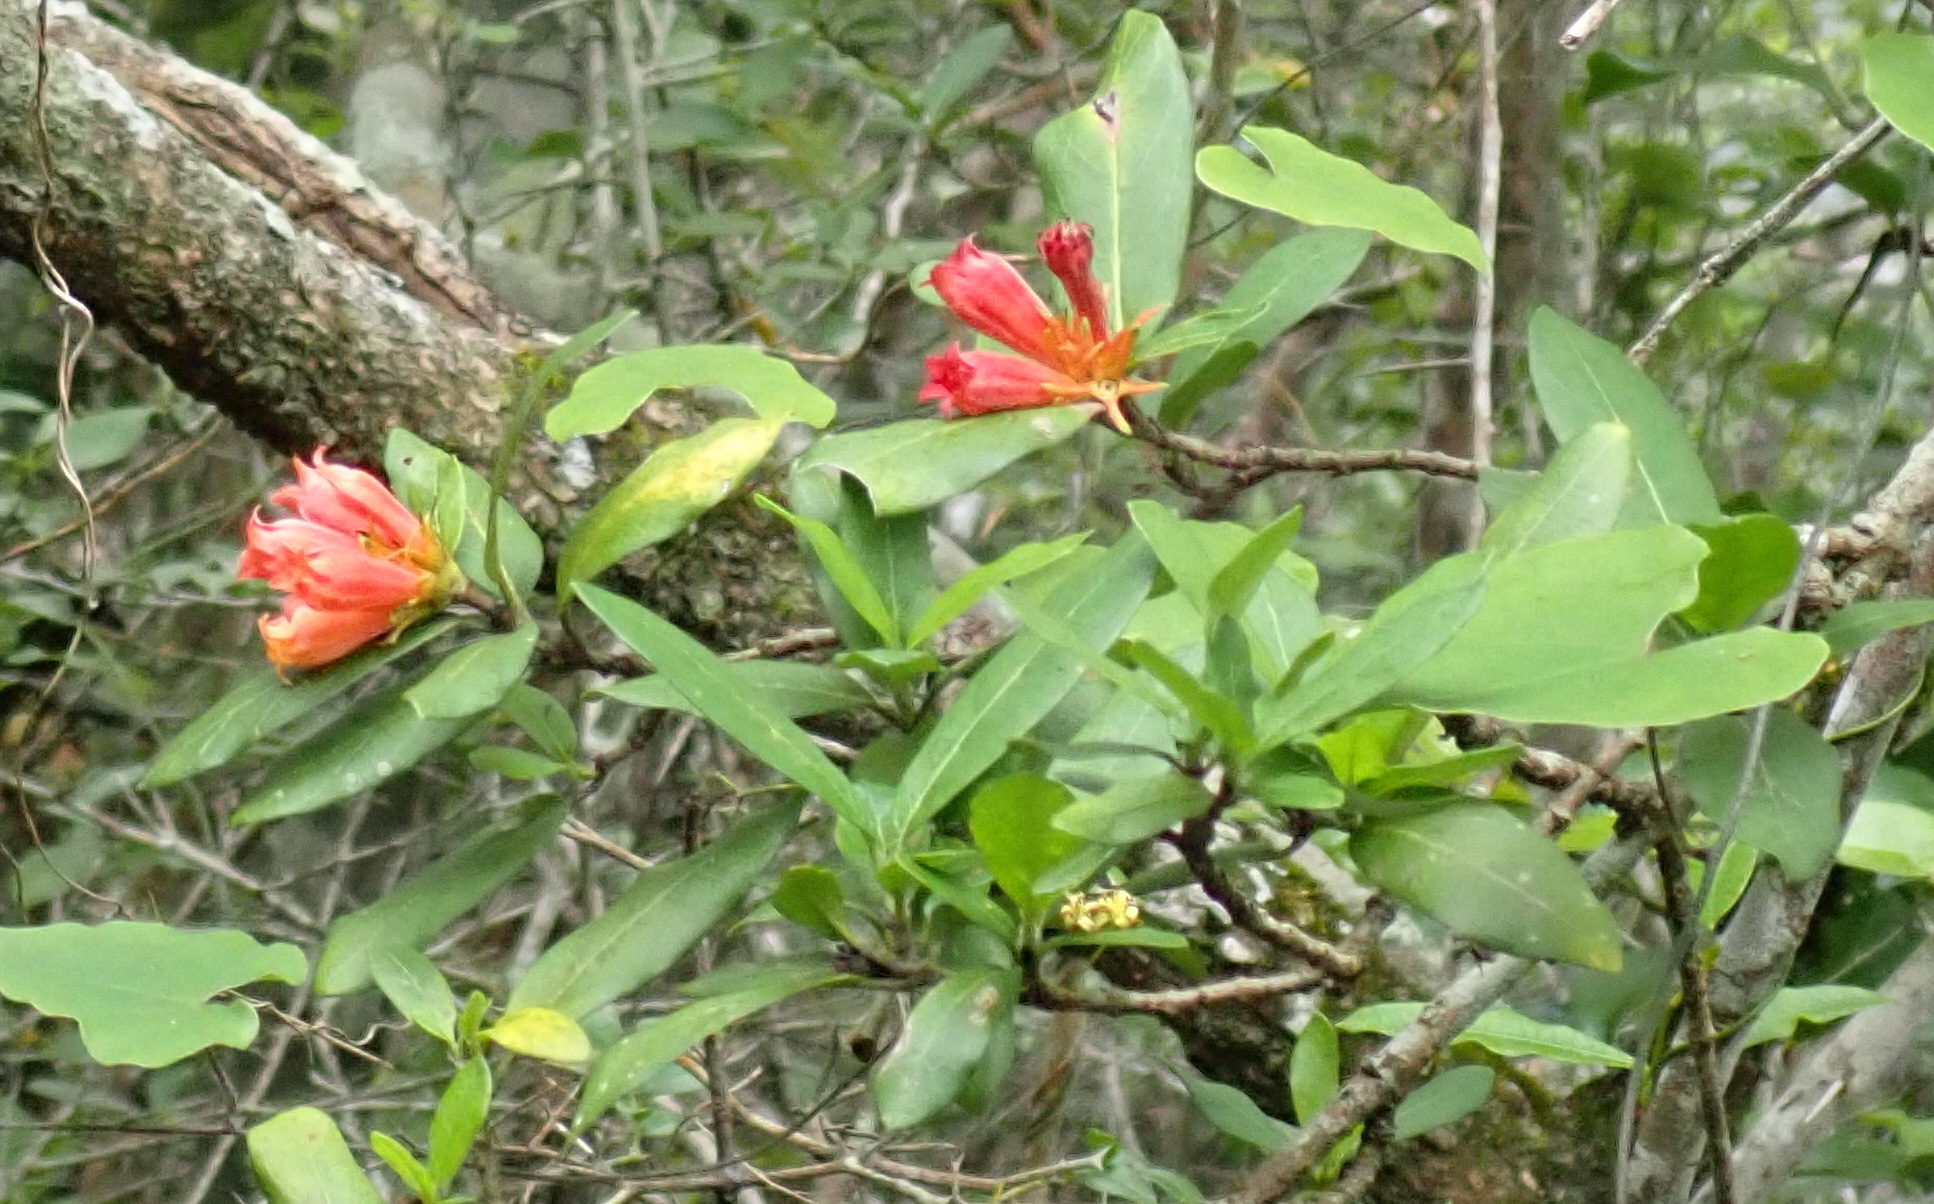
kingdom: Plantae
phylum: Tracheophyta
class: Magnoliopsida
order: Gentianales
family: Rubiaceae
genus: Burchellia
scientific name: Burchellia bubalina
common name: Wild pomegranate
